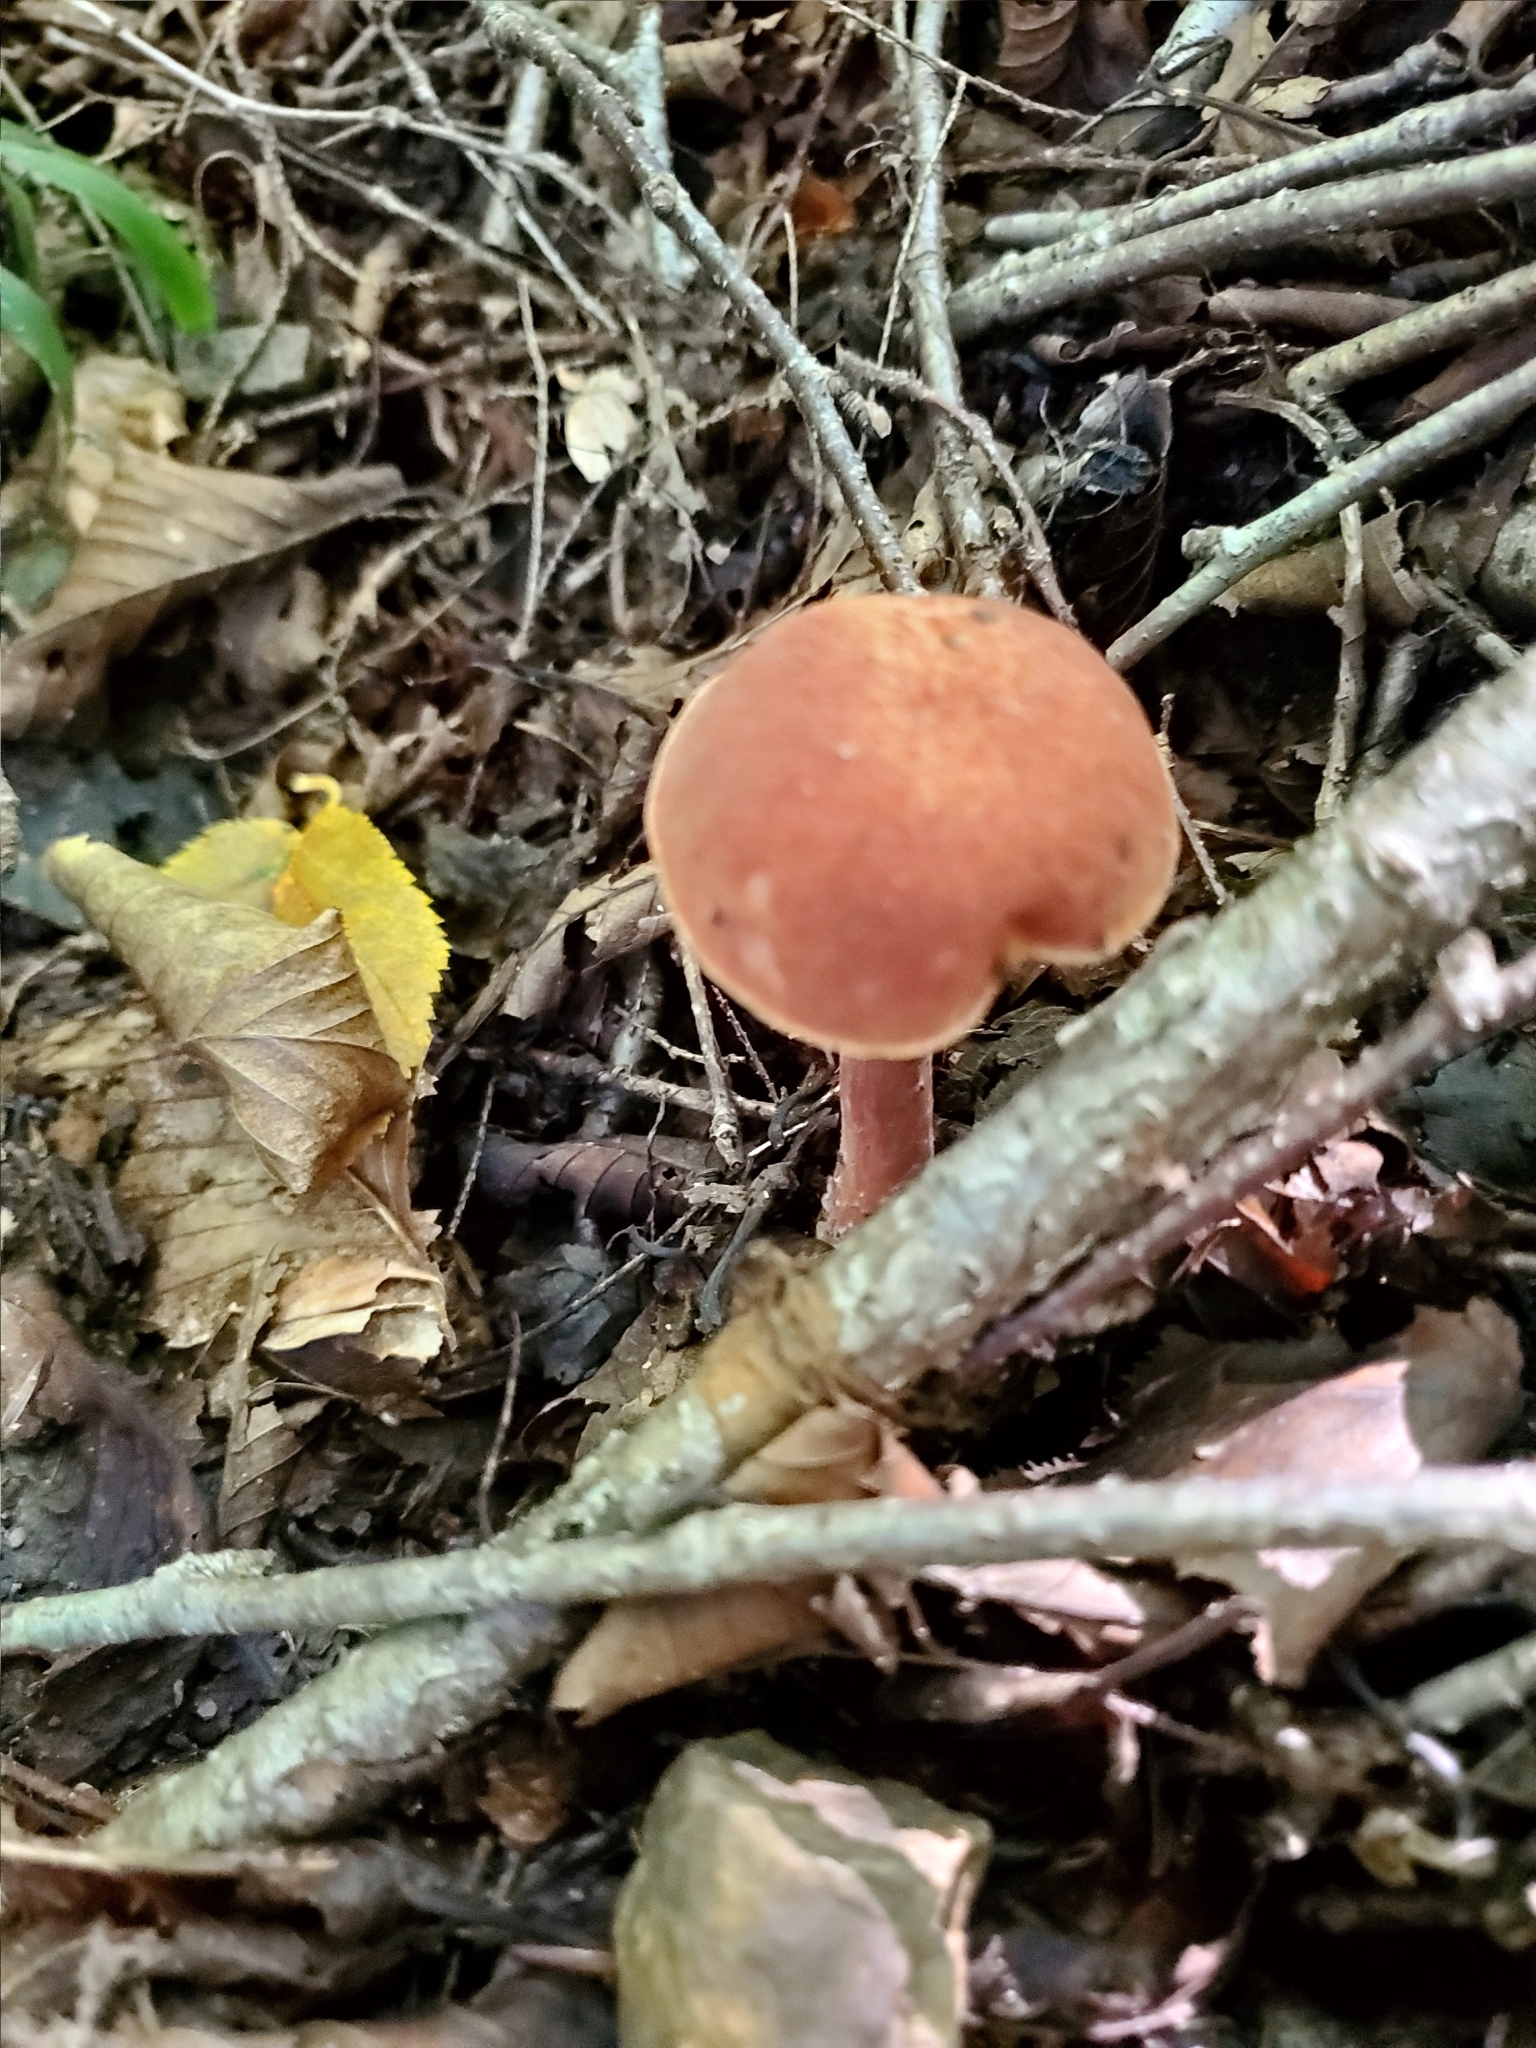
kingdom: Fungi
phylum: Basidiomycota
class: Agaricomycetes
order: Boletales
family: Boletaceae
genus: Austroboletus
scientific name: Austroboletus gracilis
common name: Graceful bolete
